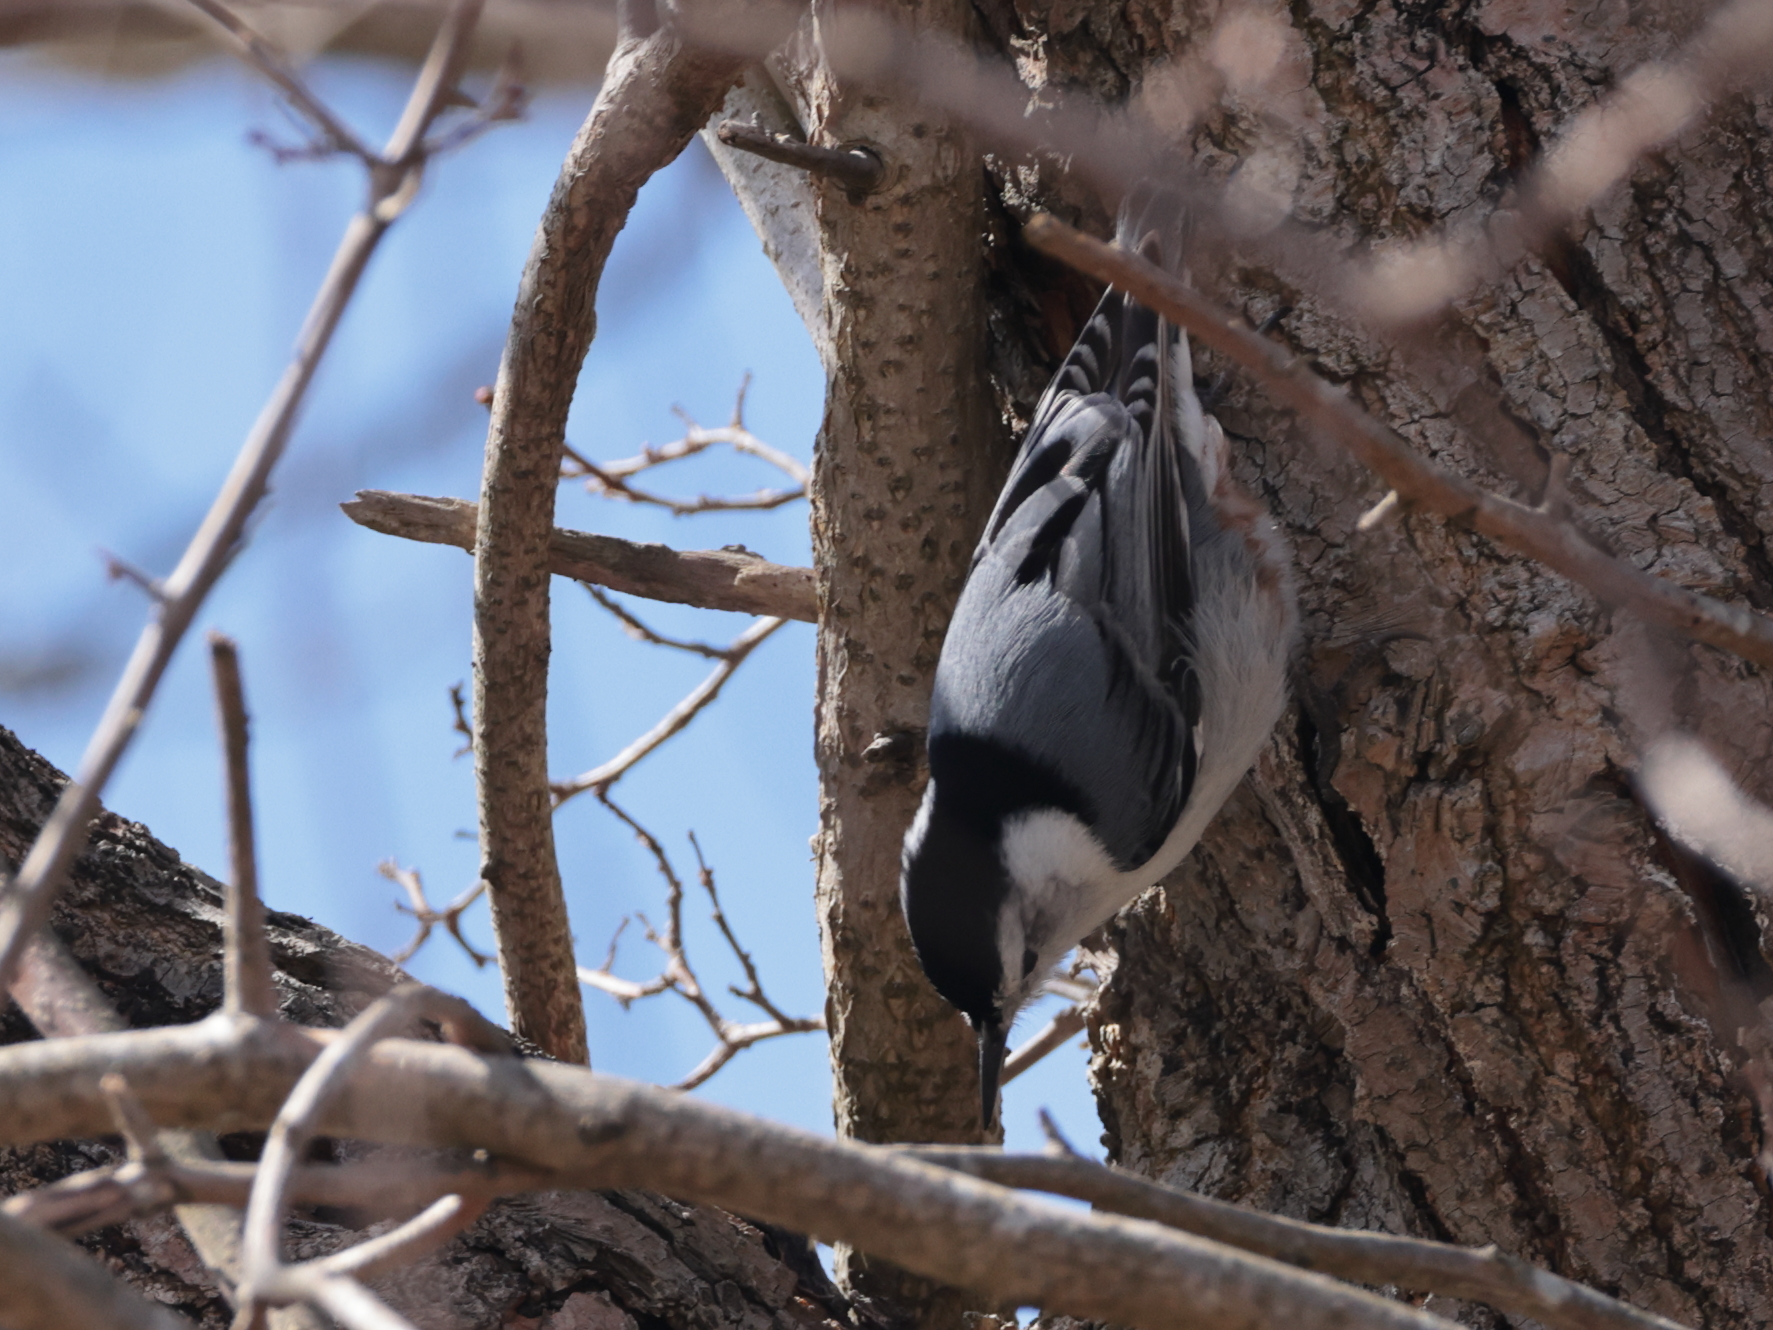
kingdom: Animalia
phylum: Chordata
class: Aves
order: Passeriformes
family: Sittidae
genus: Sitta
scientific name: Sitta carolinensis
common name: White-breasted nuthatch
